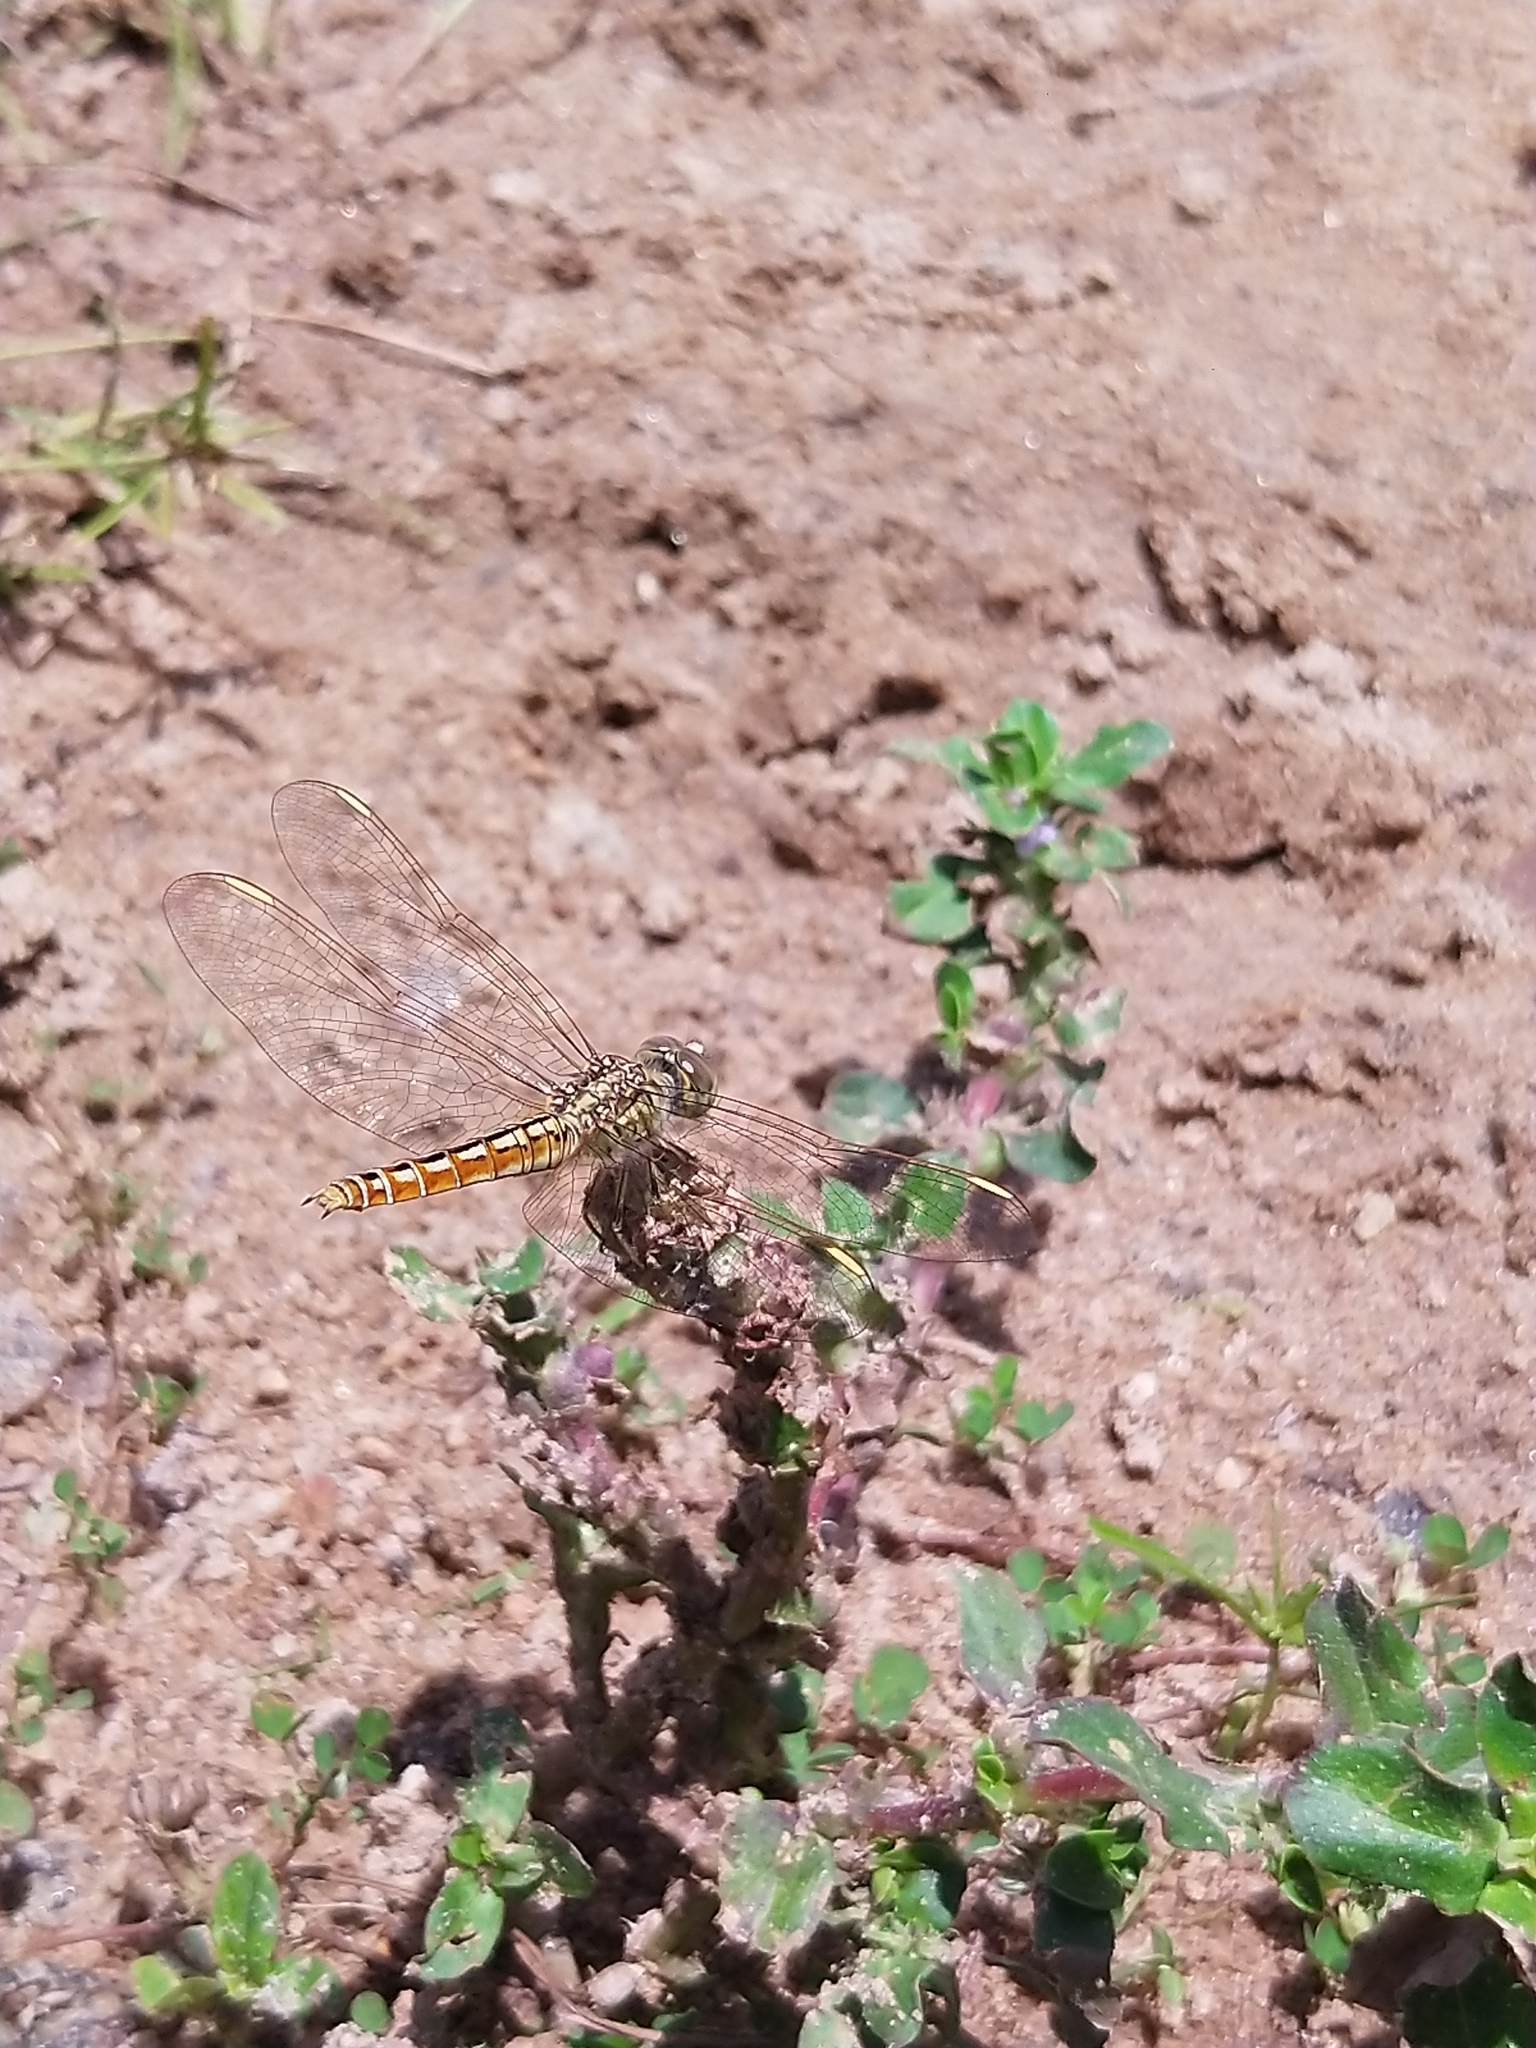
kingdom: Animalia
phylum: Arthropoda
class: Insecta
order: Odonata
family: Libellulidae
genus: Brachythemis
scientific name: Brachythemis contaminata
